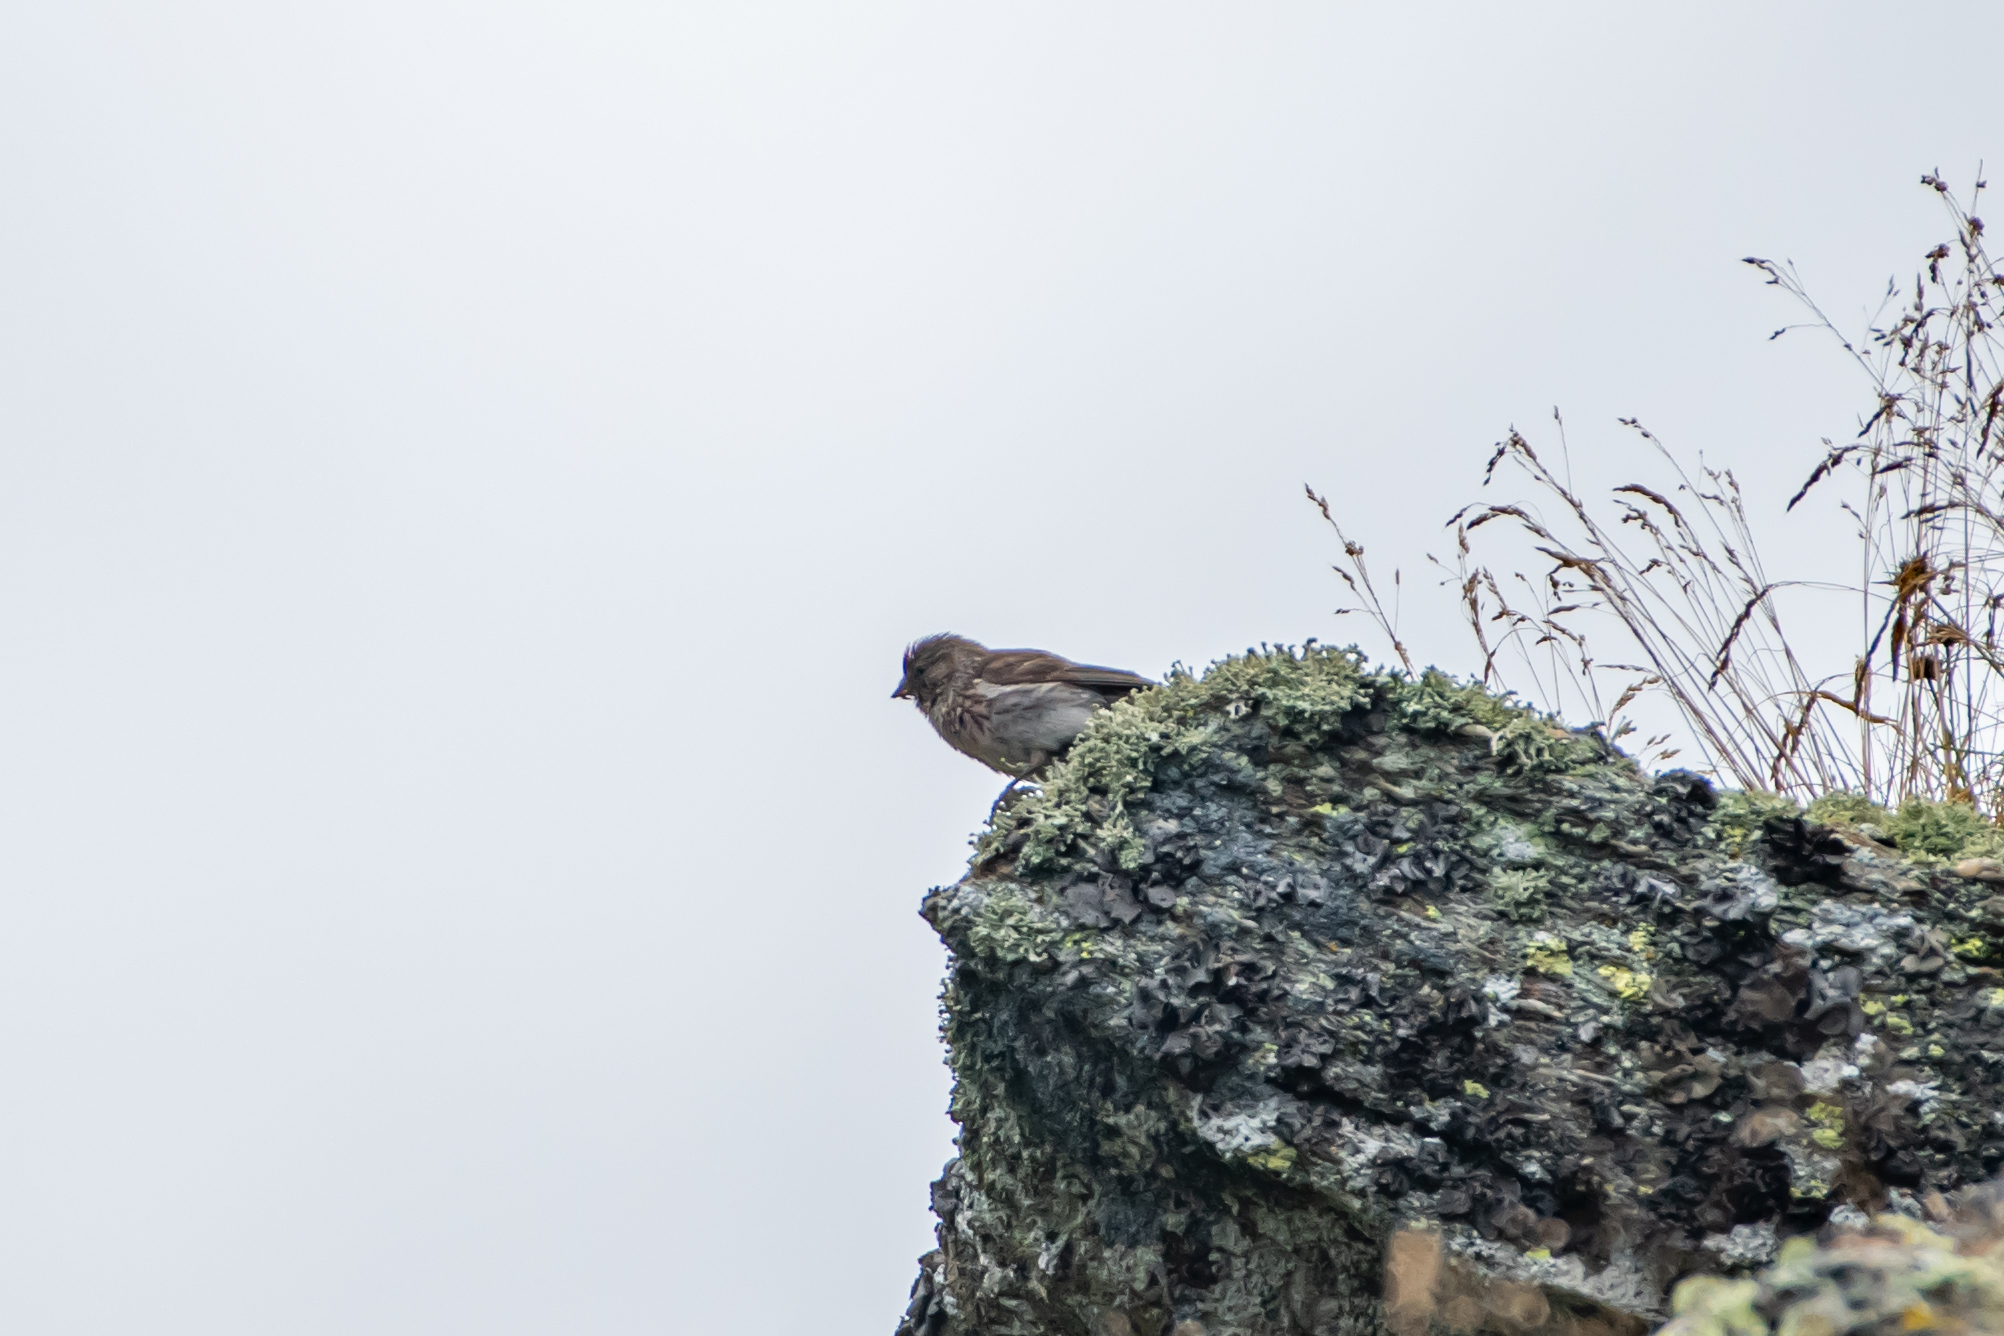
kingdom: Animalia
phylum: Chordata
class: Aves
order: Passeriformes
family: Fringillidae
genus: Linaria
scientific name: Linaria cannabina
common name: Common linnet
